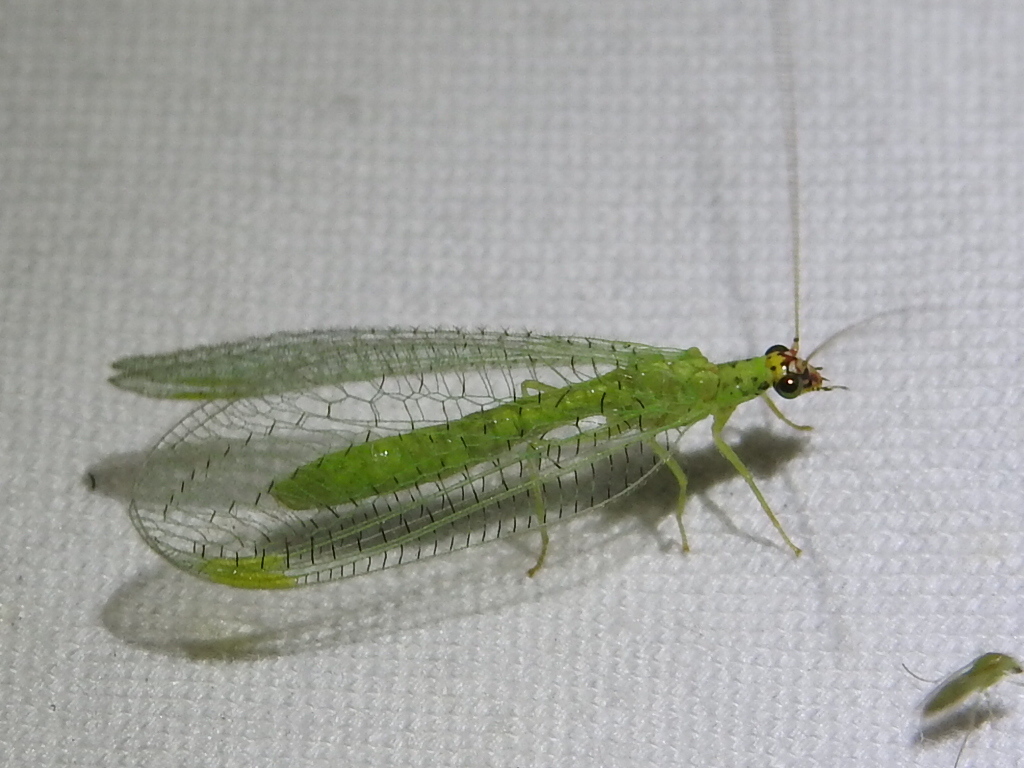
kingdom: Animalia
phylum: Arthropoda
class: Insecta
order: Neuroptera
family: Chrysopidae
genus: Chrysopa
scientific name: Chrysopa oculata
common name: Golden-eyed lacewing
